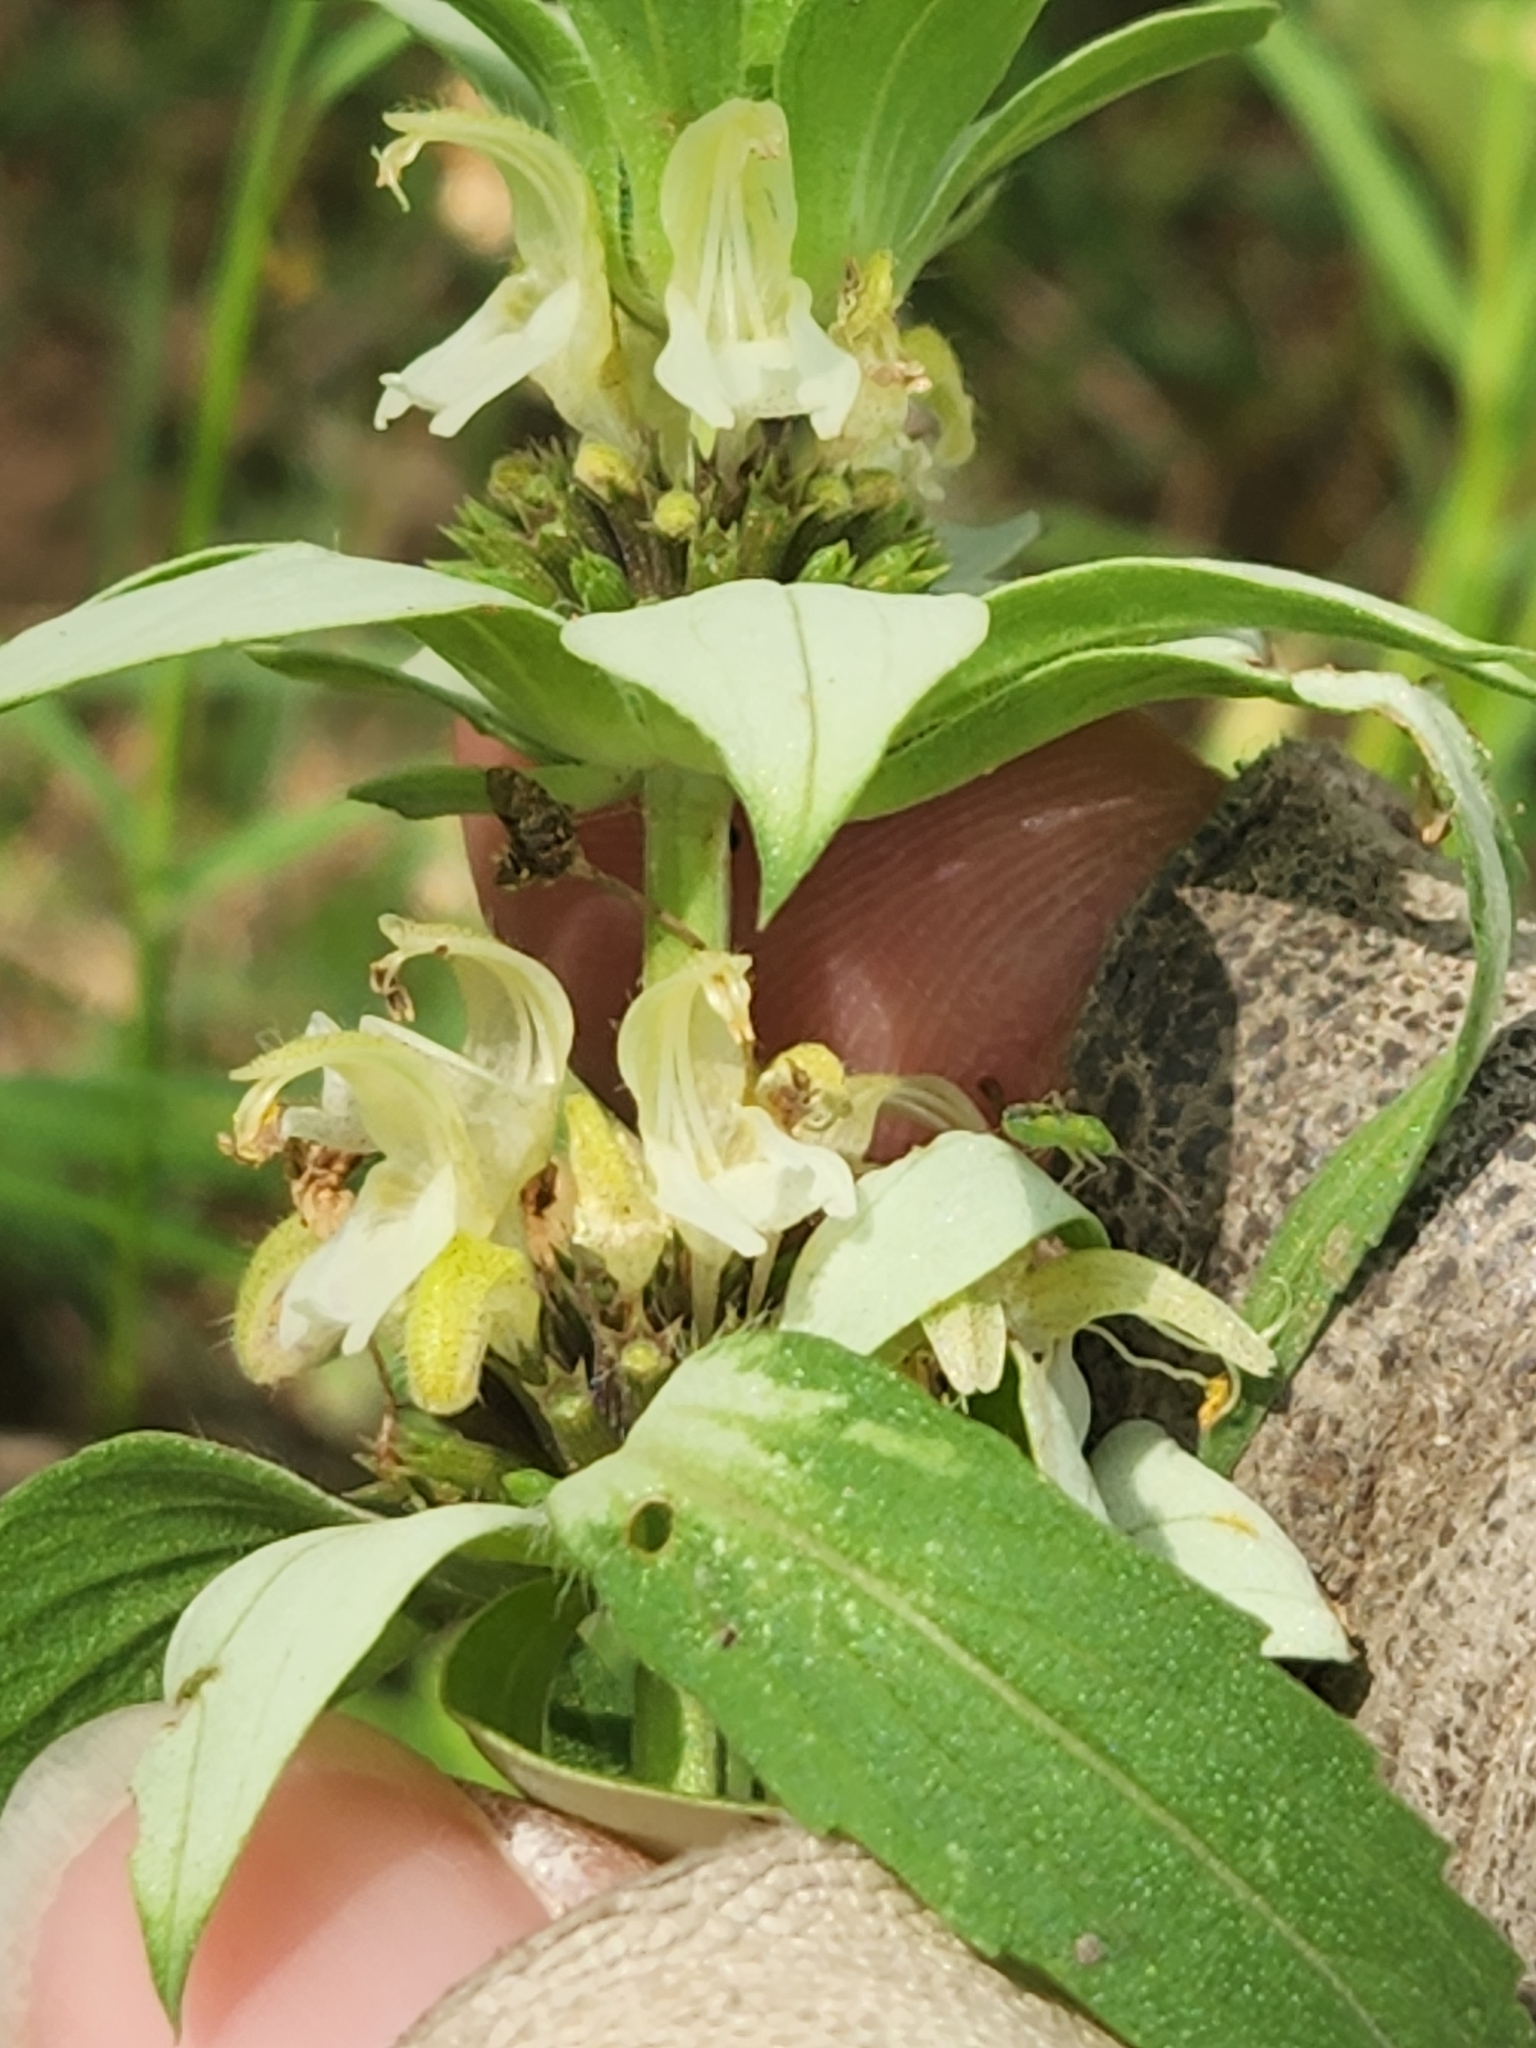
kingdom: Plantae
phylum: Tracheophyta
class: Magnoliopsida
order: Lamiales
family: Lamiaceae
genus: Monarda
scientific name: Monarda punctata
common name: Dotted monarda
